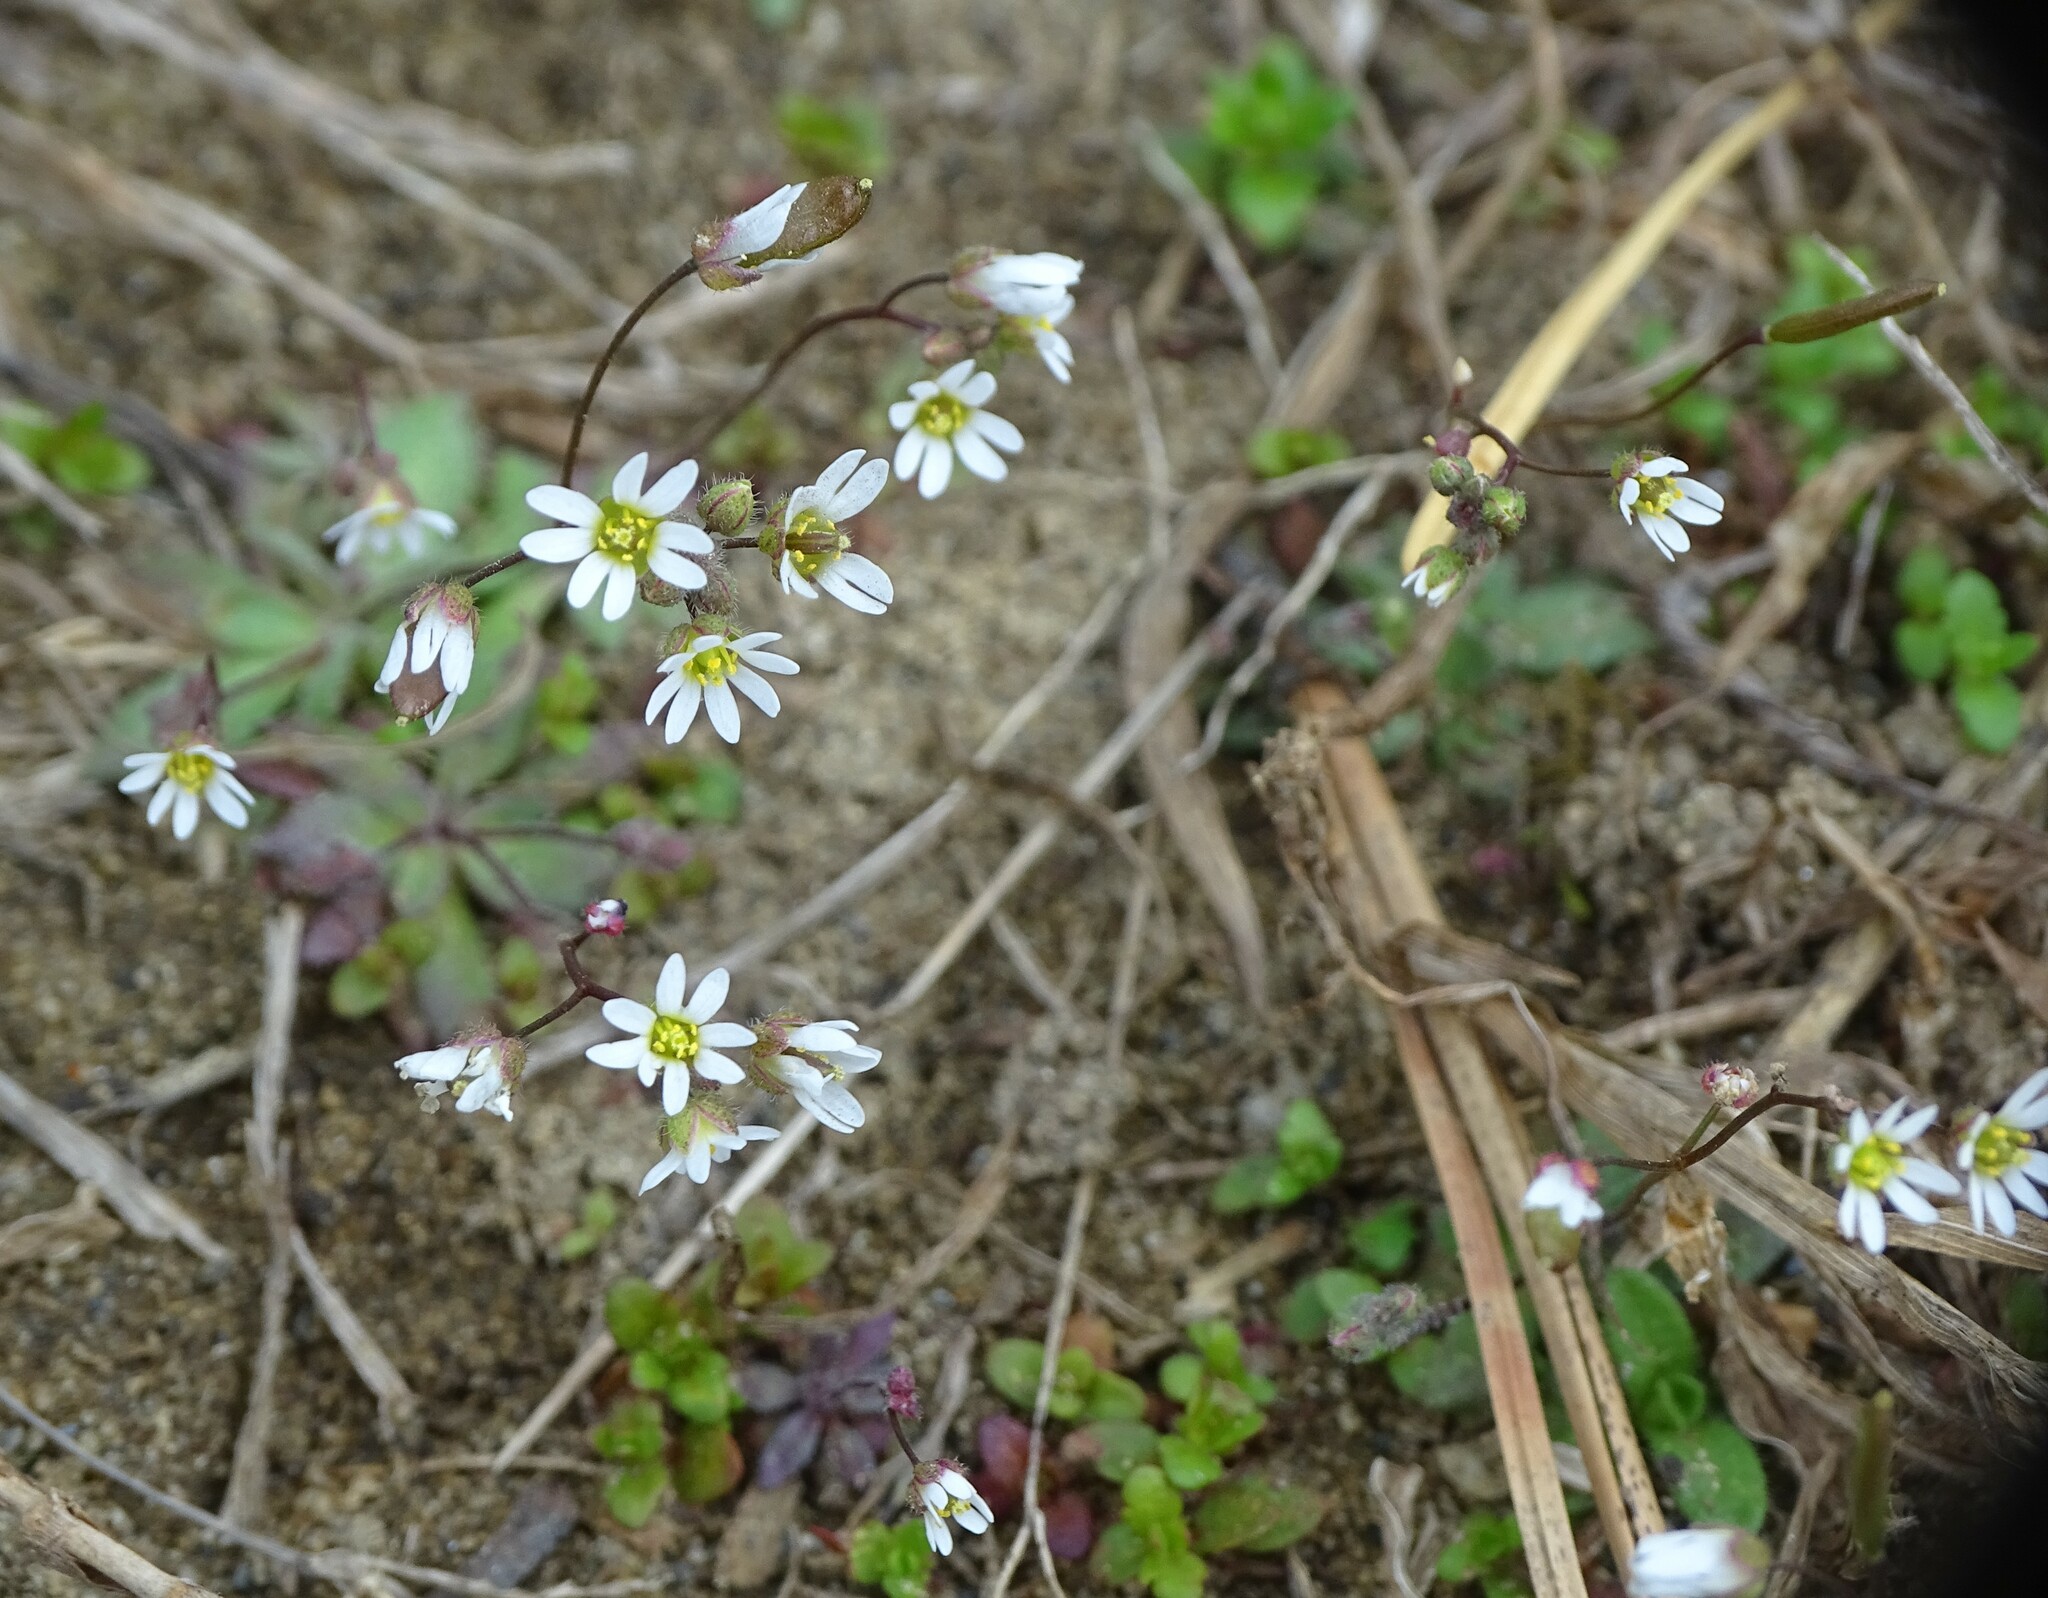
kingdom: Plantae
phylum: Tracheophyta
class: Magnoliopsida
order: Brassicales
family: Brassicaceae
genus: Draba
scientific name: Draba verna
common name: Spring draba
